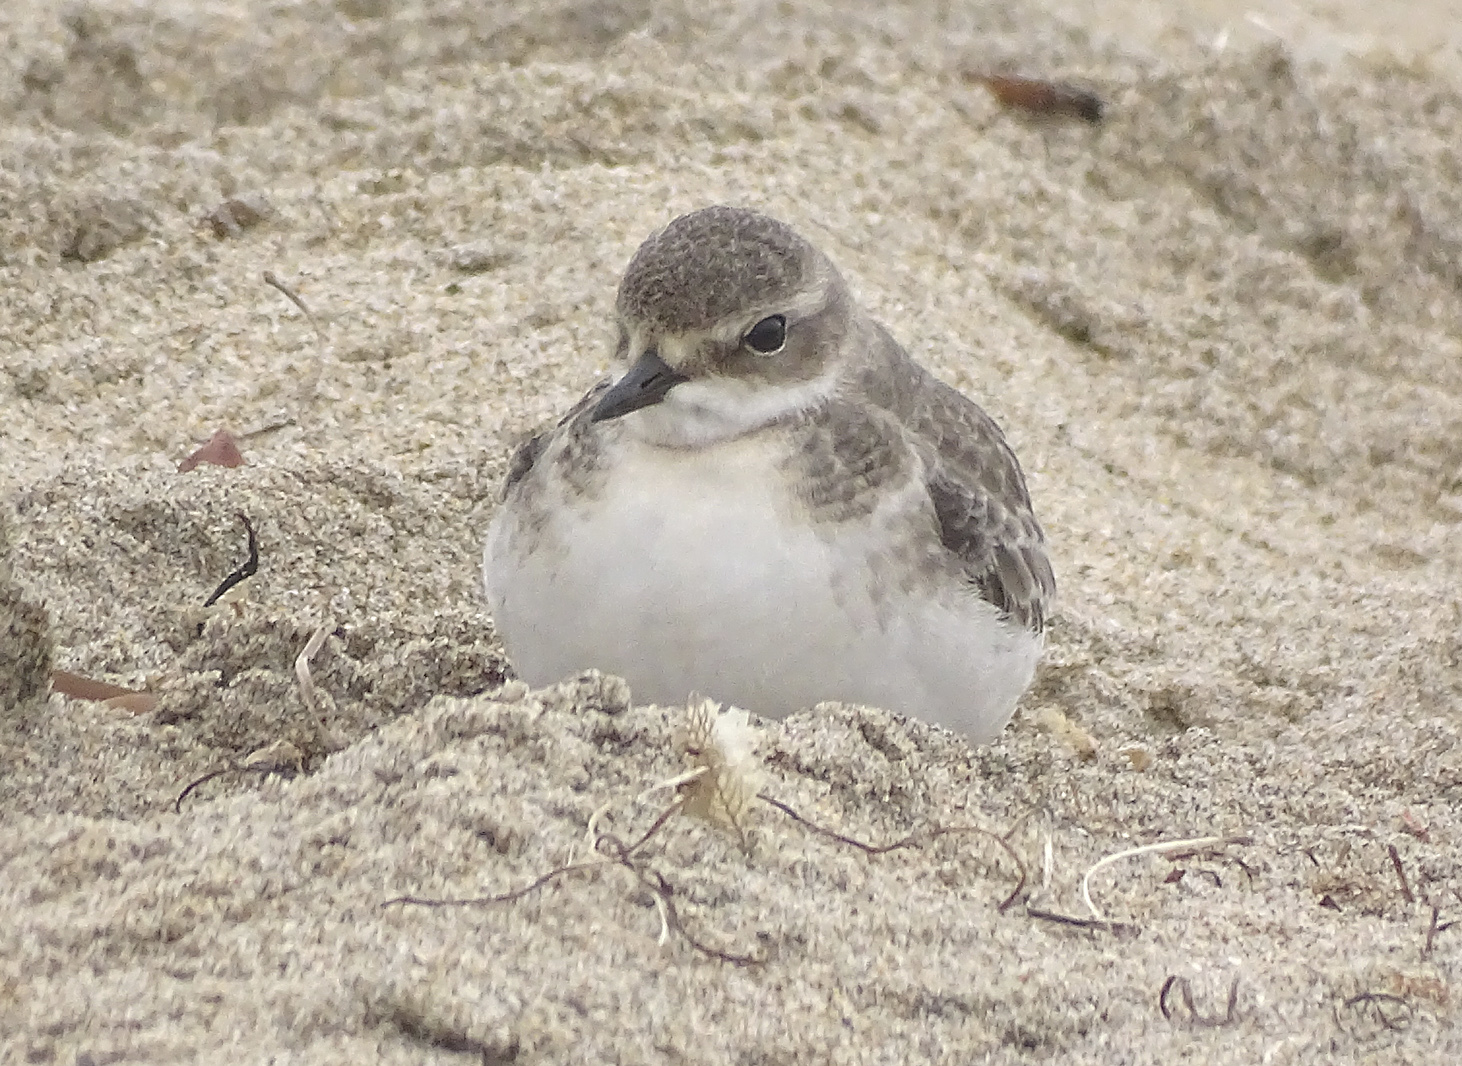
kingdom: Animalia
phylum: Chordata
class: Aves
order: Charadriiformes
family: Charadriidae
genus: Anarhynchus
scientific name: Anarhynchus
